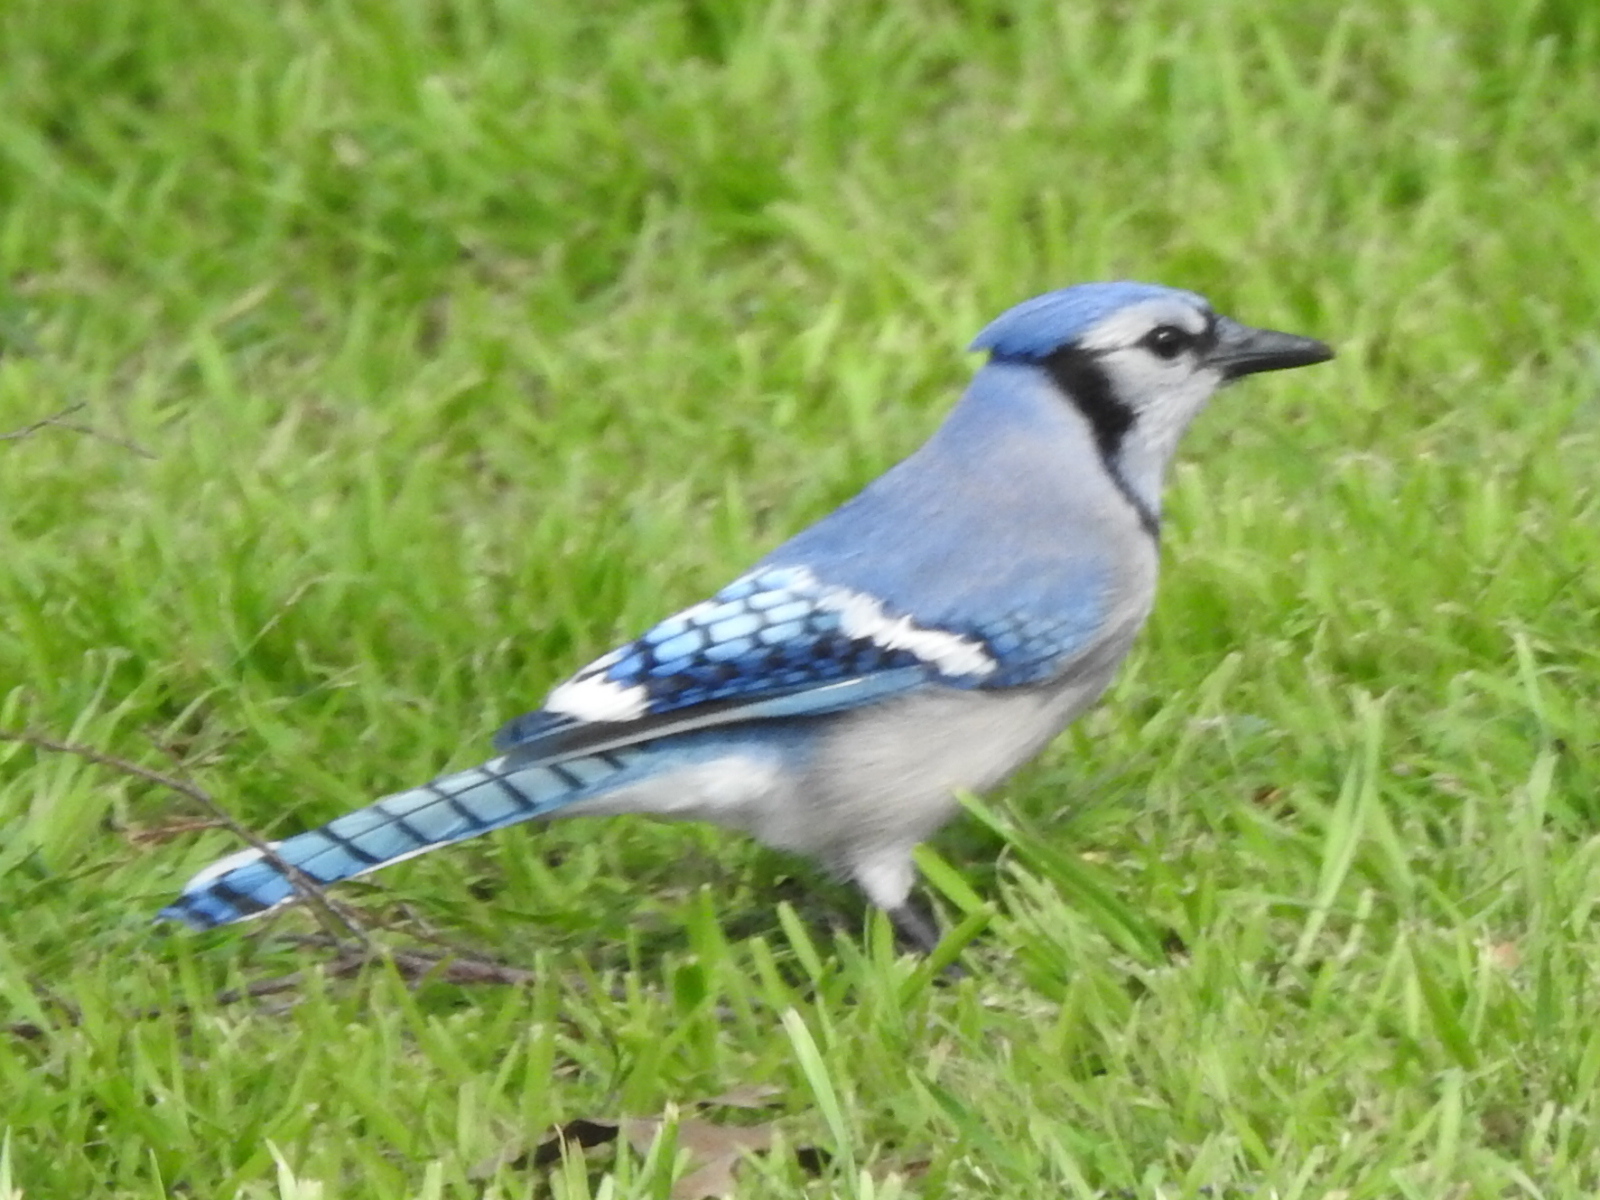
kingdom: Animalia
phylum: Chordata
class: Aves
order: Passeriformes
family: Corvidae
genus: Cyanocitta
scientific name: Cyanocitta cristata
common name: Blue jay
